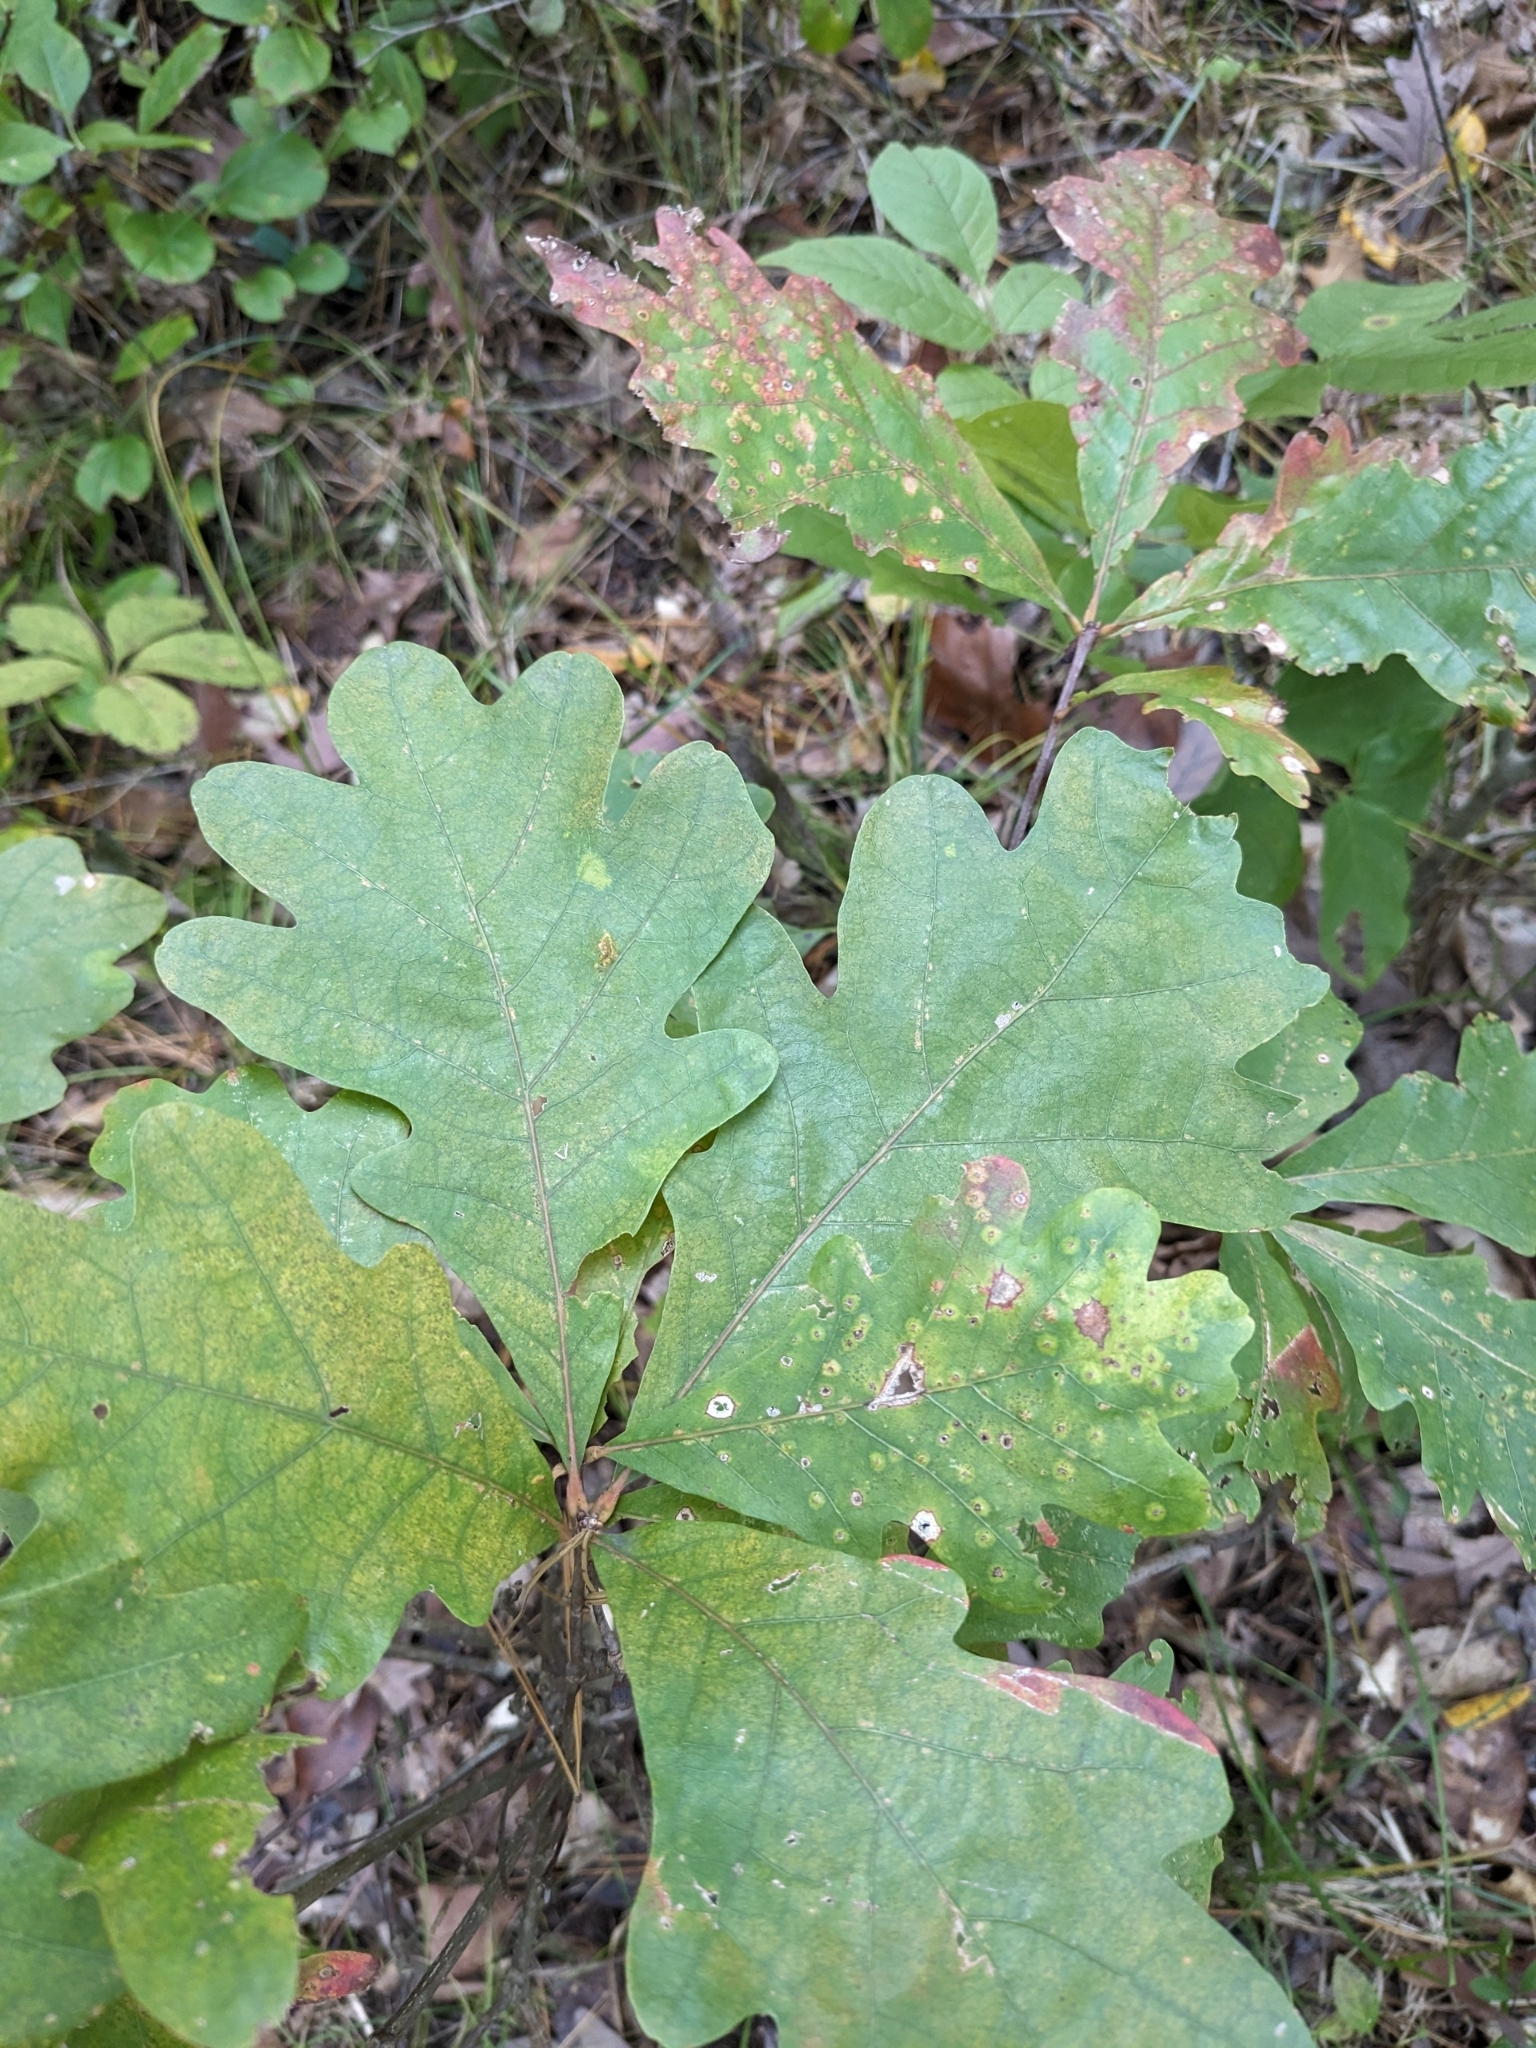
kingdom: Plantae
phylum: Tracheophyta
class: Magnoliopsida
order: Fagales
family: Fagaceae
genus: Quercus
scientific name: Quercus alba
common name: White oak
